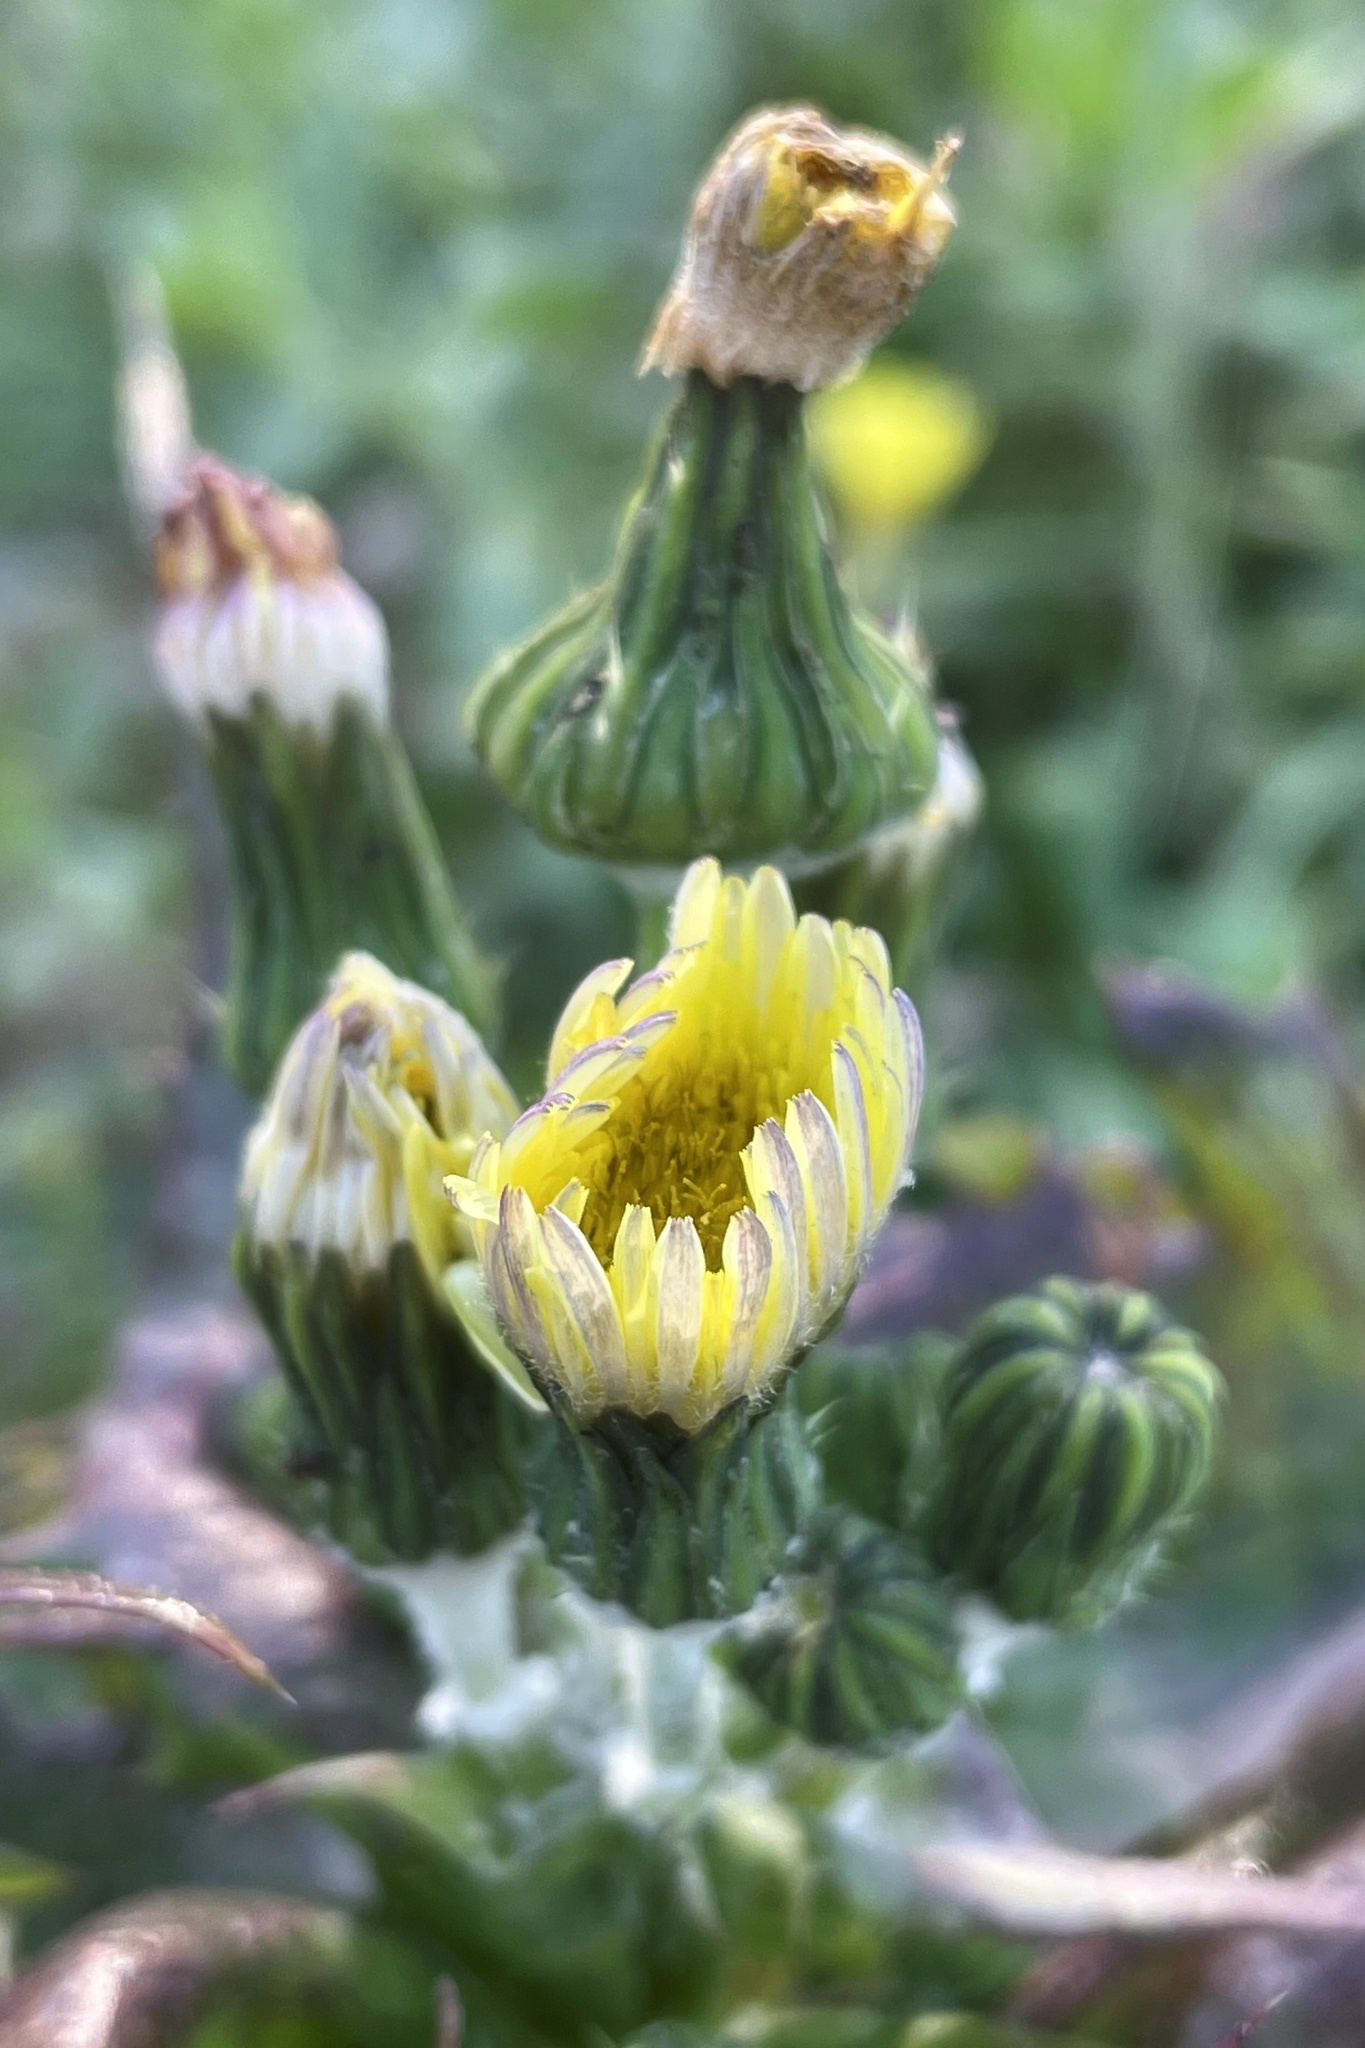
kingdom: Plantae
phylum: Tracheophyta
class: Magnoliopsida
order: Asterales
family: Asteraceae
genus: Sonchus
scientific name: Sonchus oleraceus
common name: Common sowthistle
